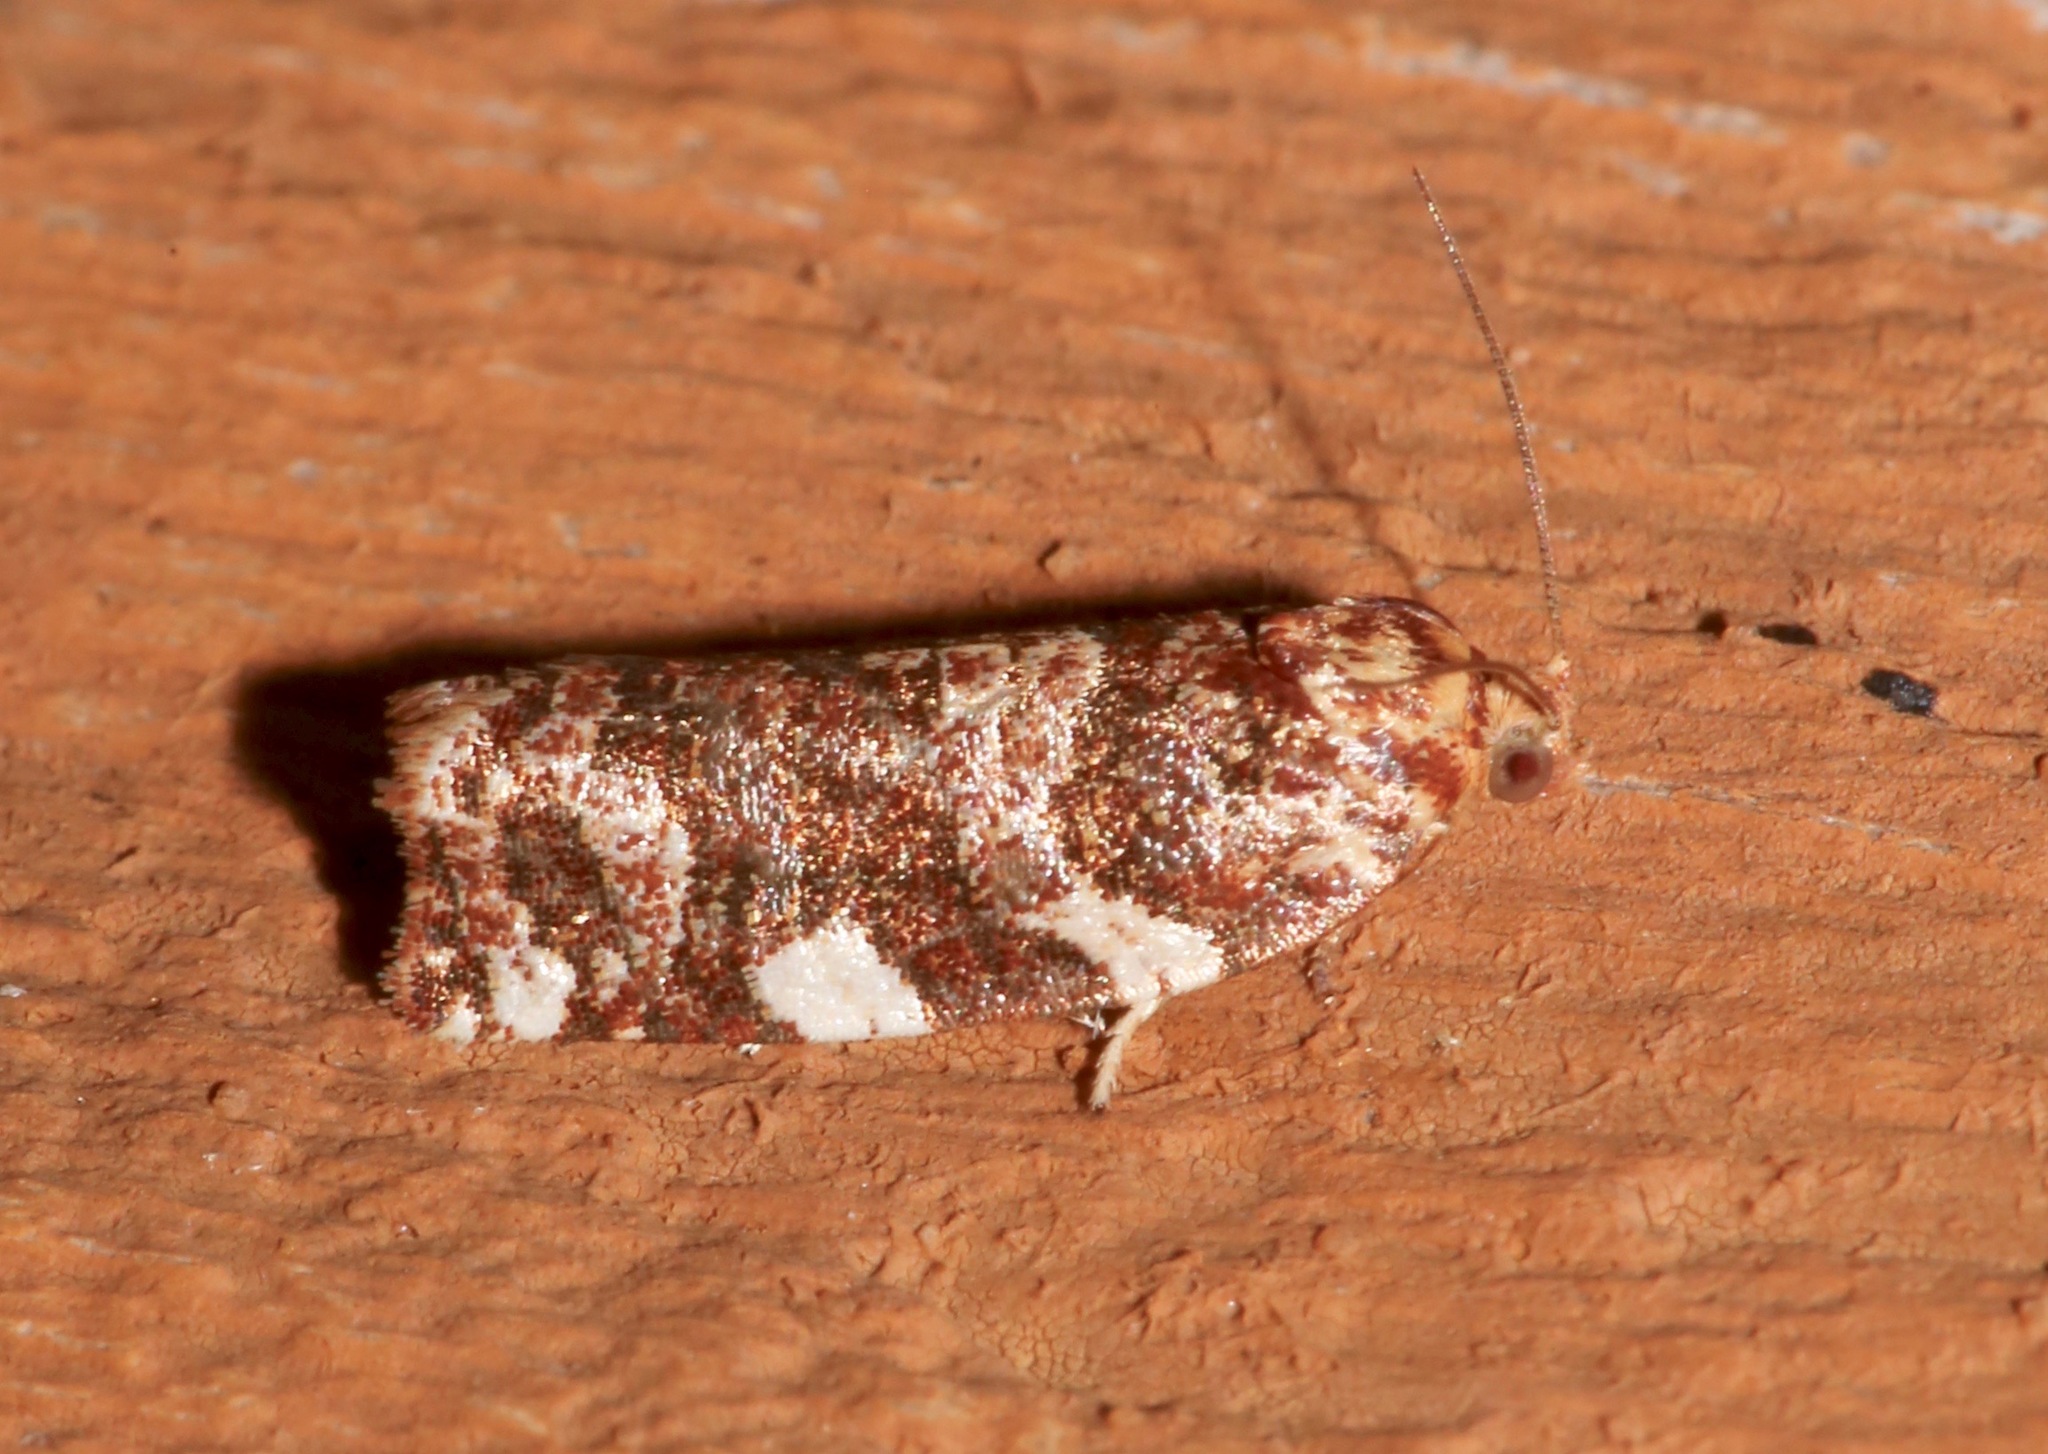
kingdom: Animalia
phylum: Arthropoda
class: Insecta
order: Lepidoptera
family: Tortricidae
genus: Archips
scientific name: Archips argyrospila
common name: Fruit-tree leafroller moth
